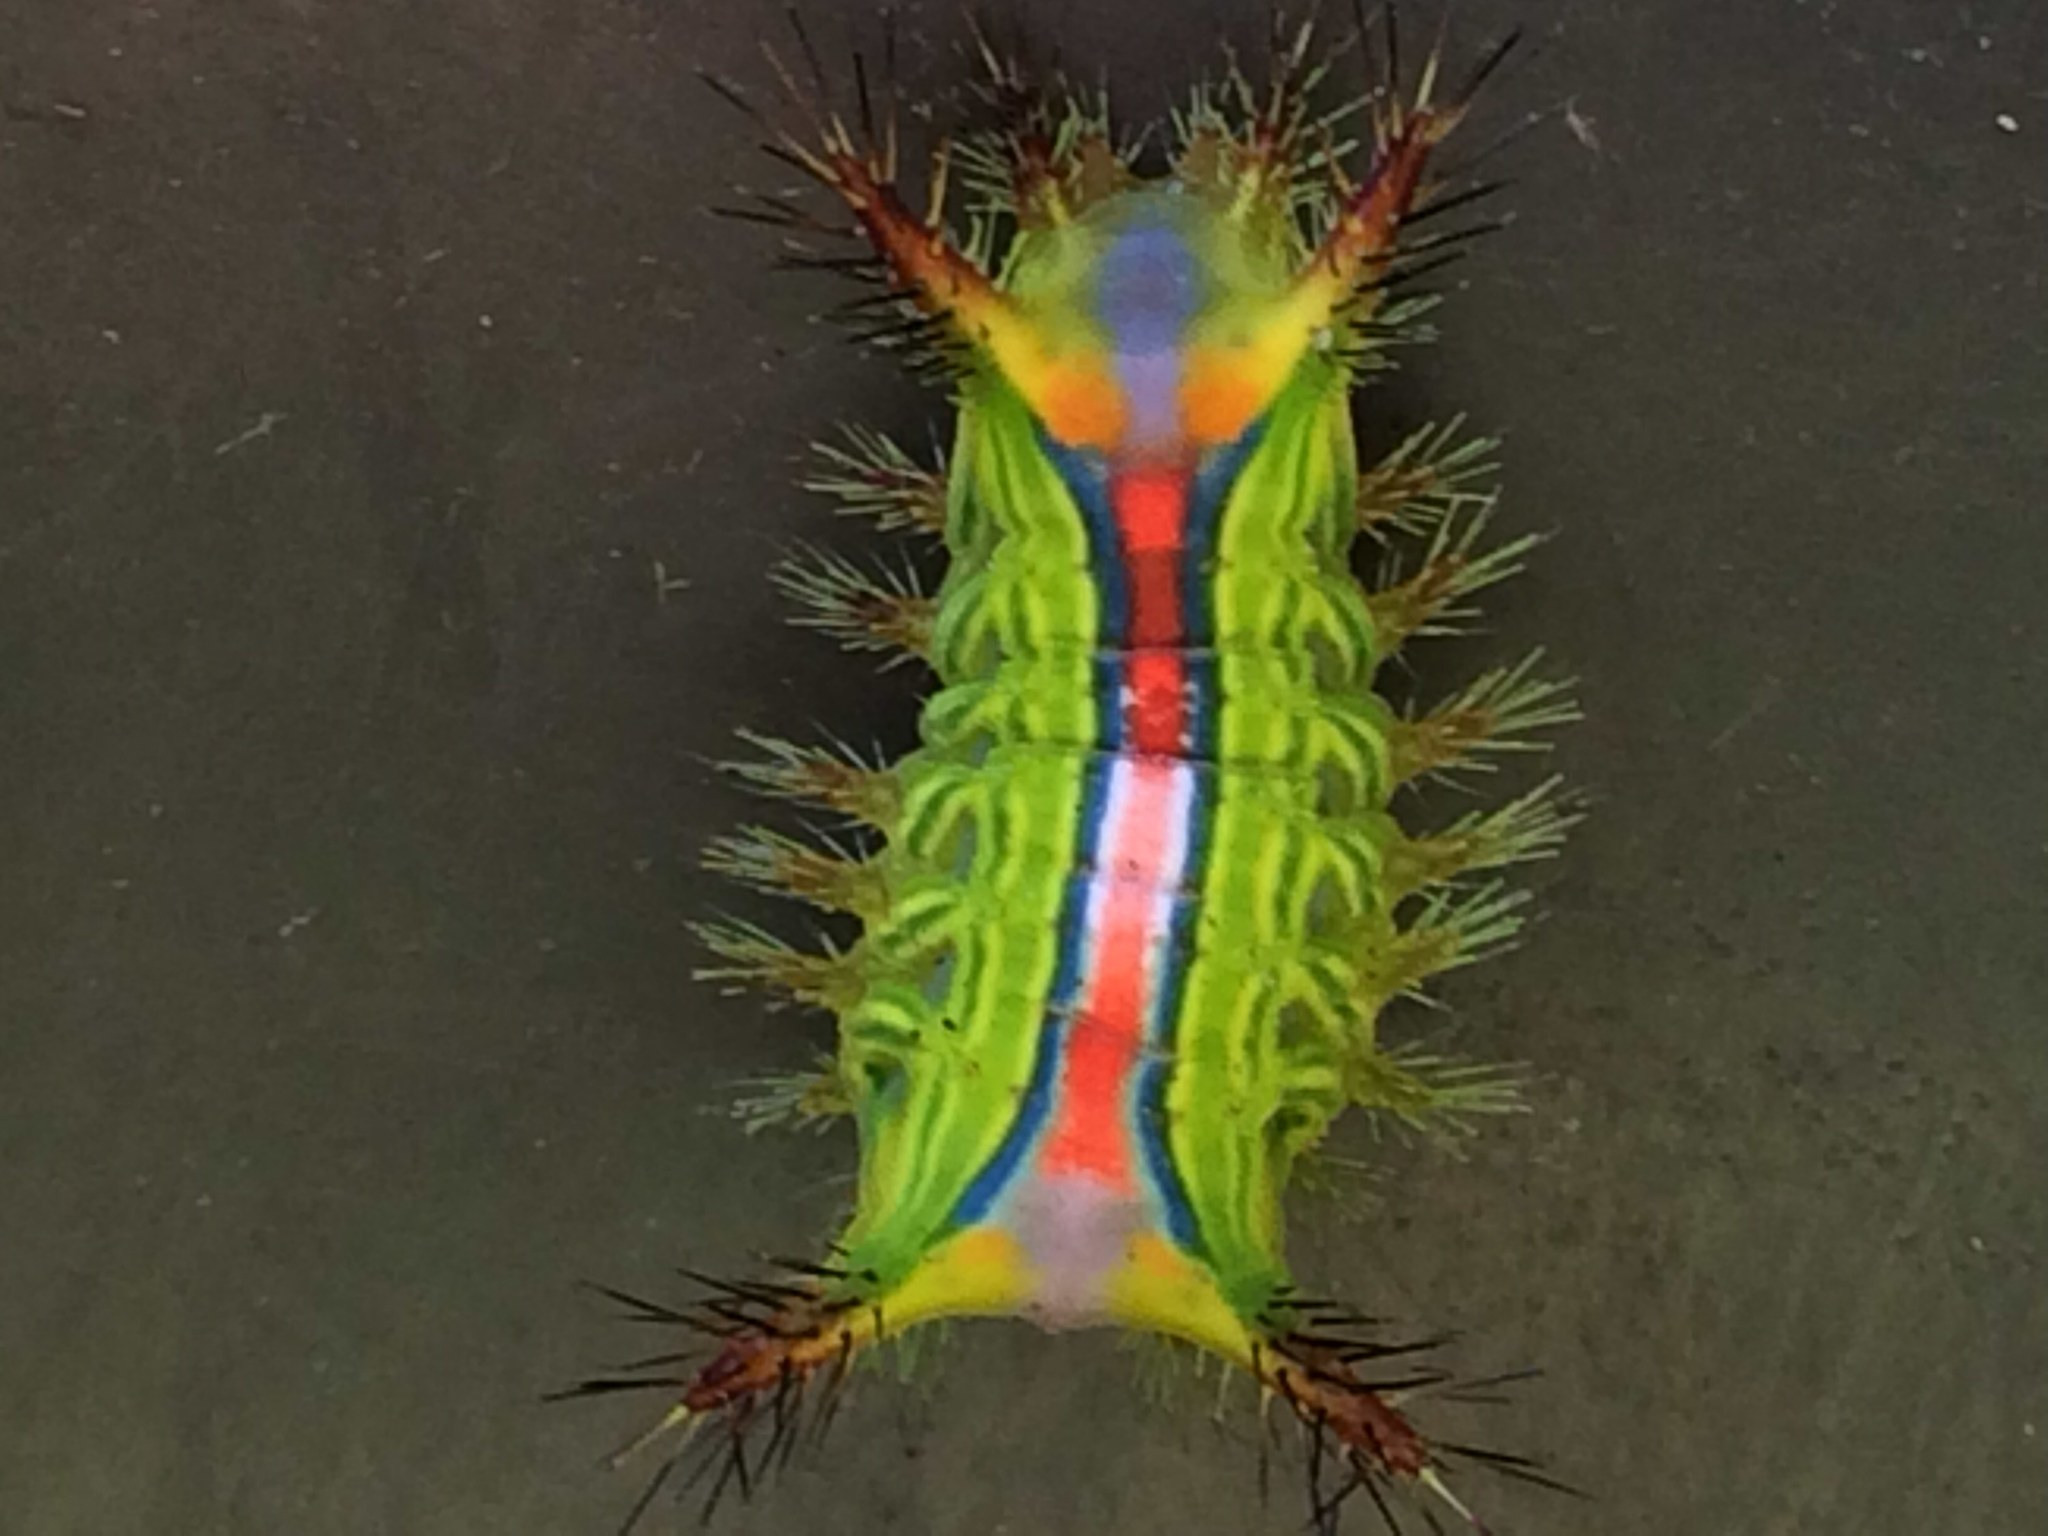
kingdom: Animalia
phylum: Arthropoda
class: Insecta
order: Lepidoptera
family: Limacodidae
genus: Anaxidia
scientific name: Anaxidia lozogramma
